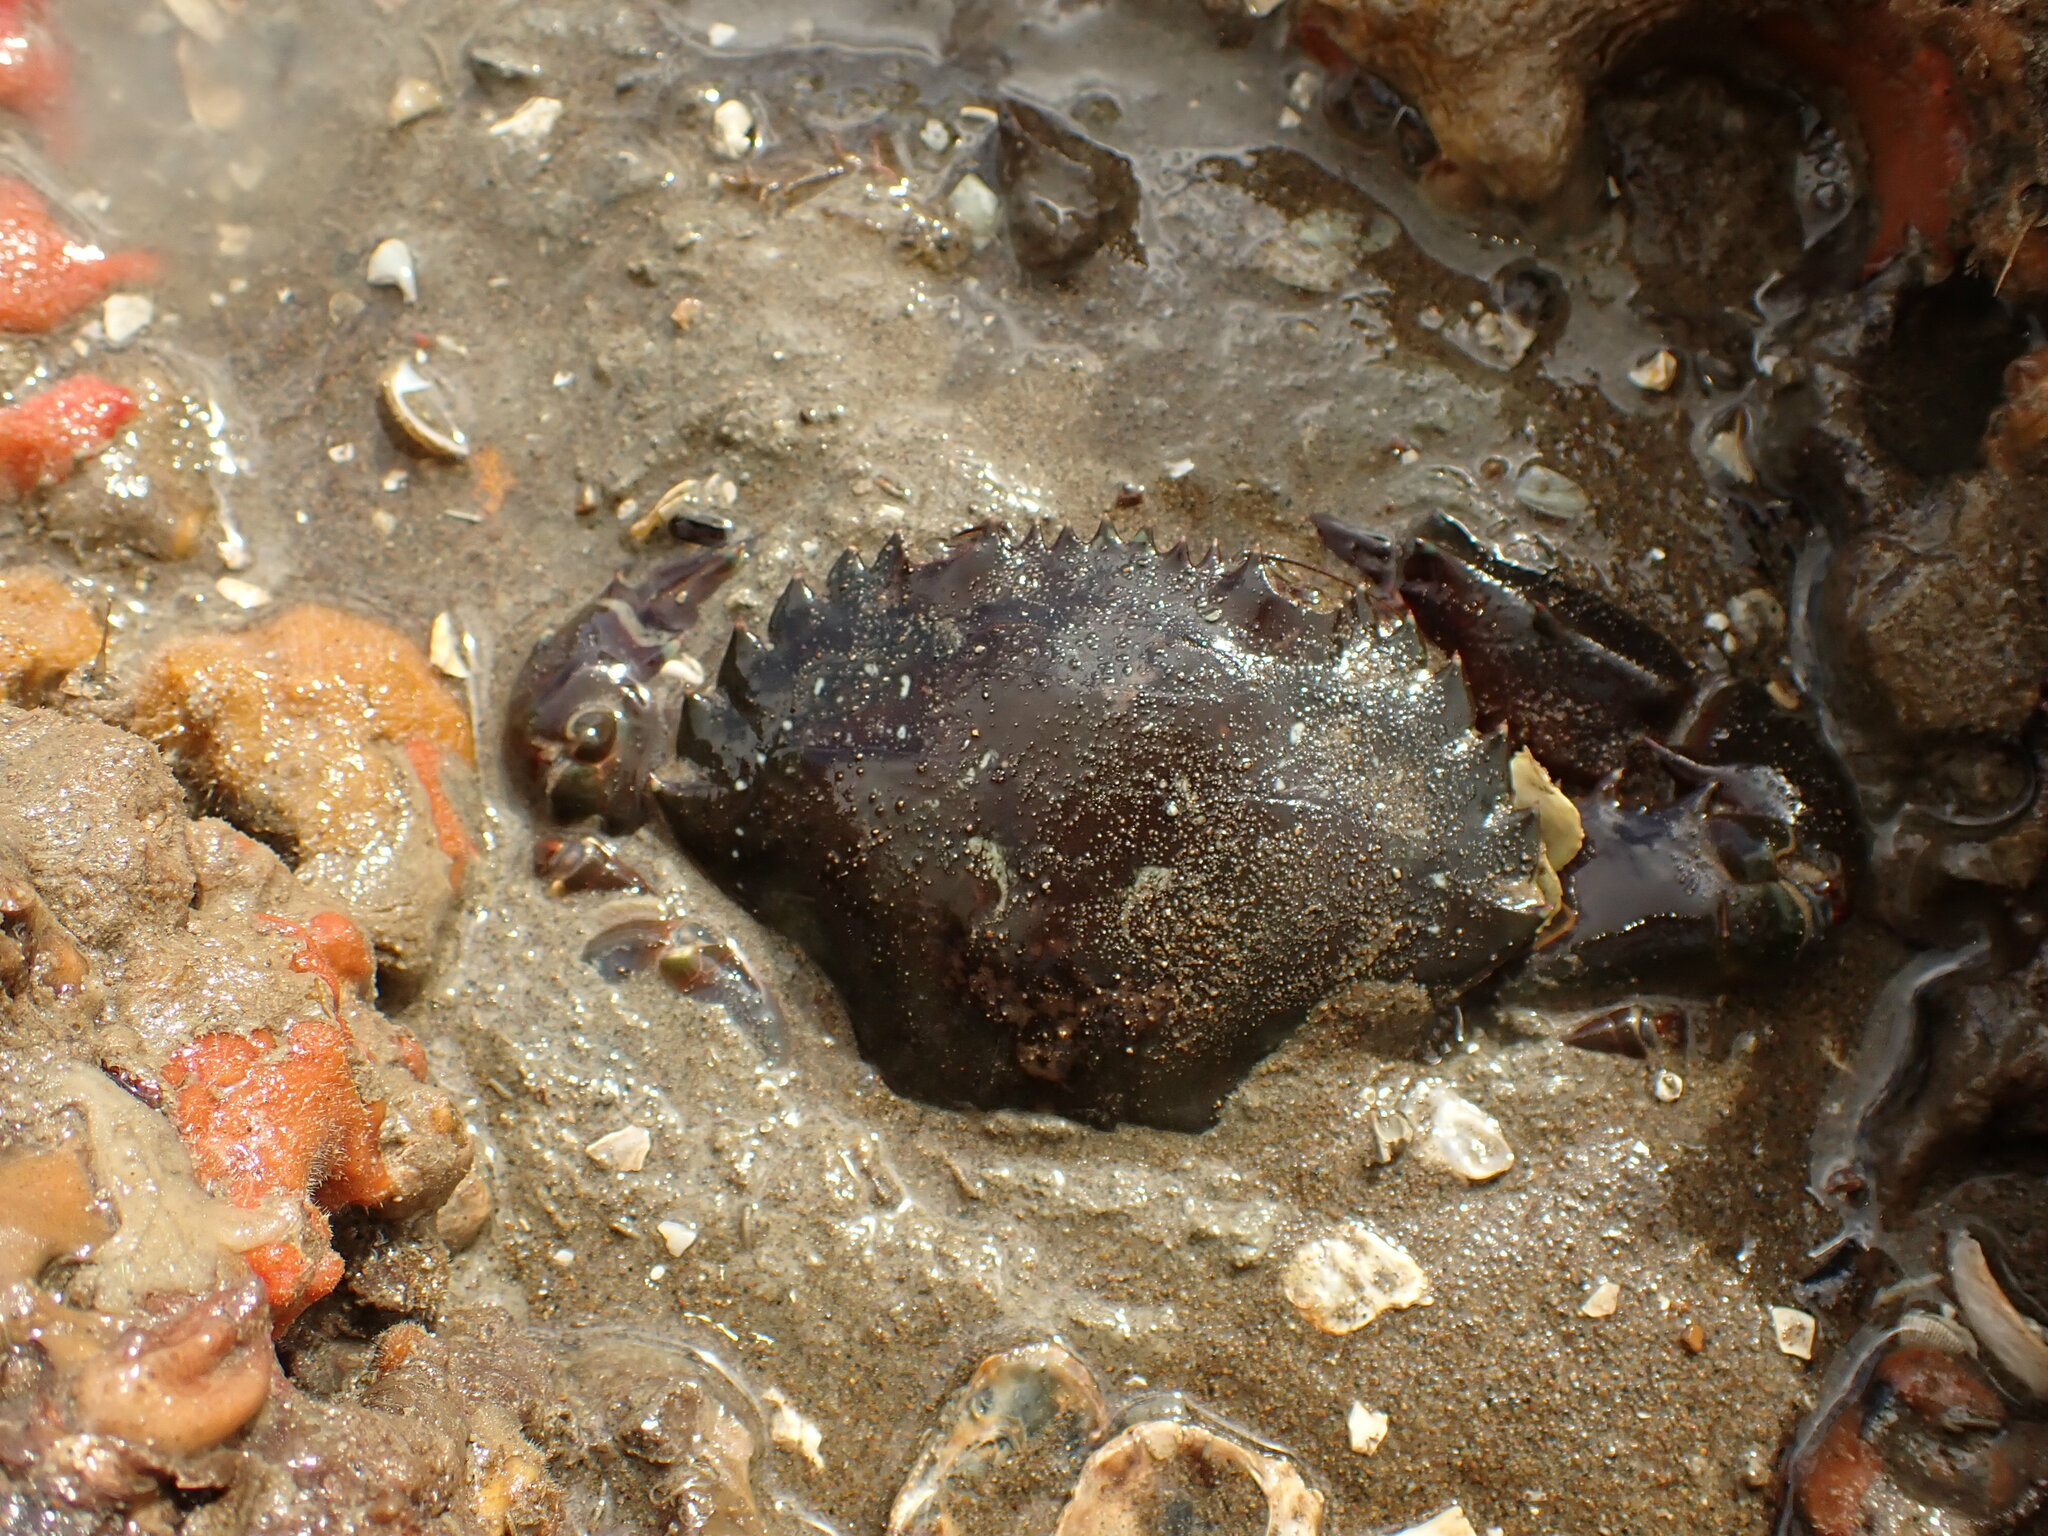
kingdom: Animalia
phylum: Arthropoda
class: Malacostraca
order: Decapoda
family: Portunidae
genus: Charybdis
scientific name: Charybdis japonica
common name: Asian paddle crab
